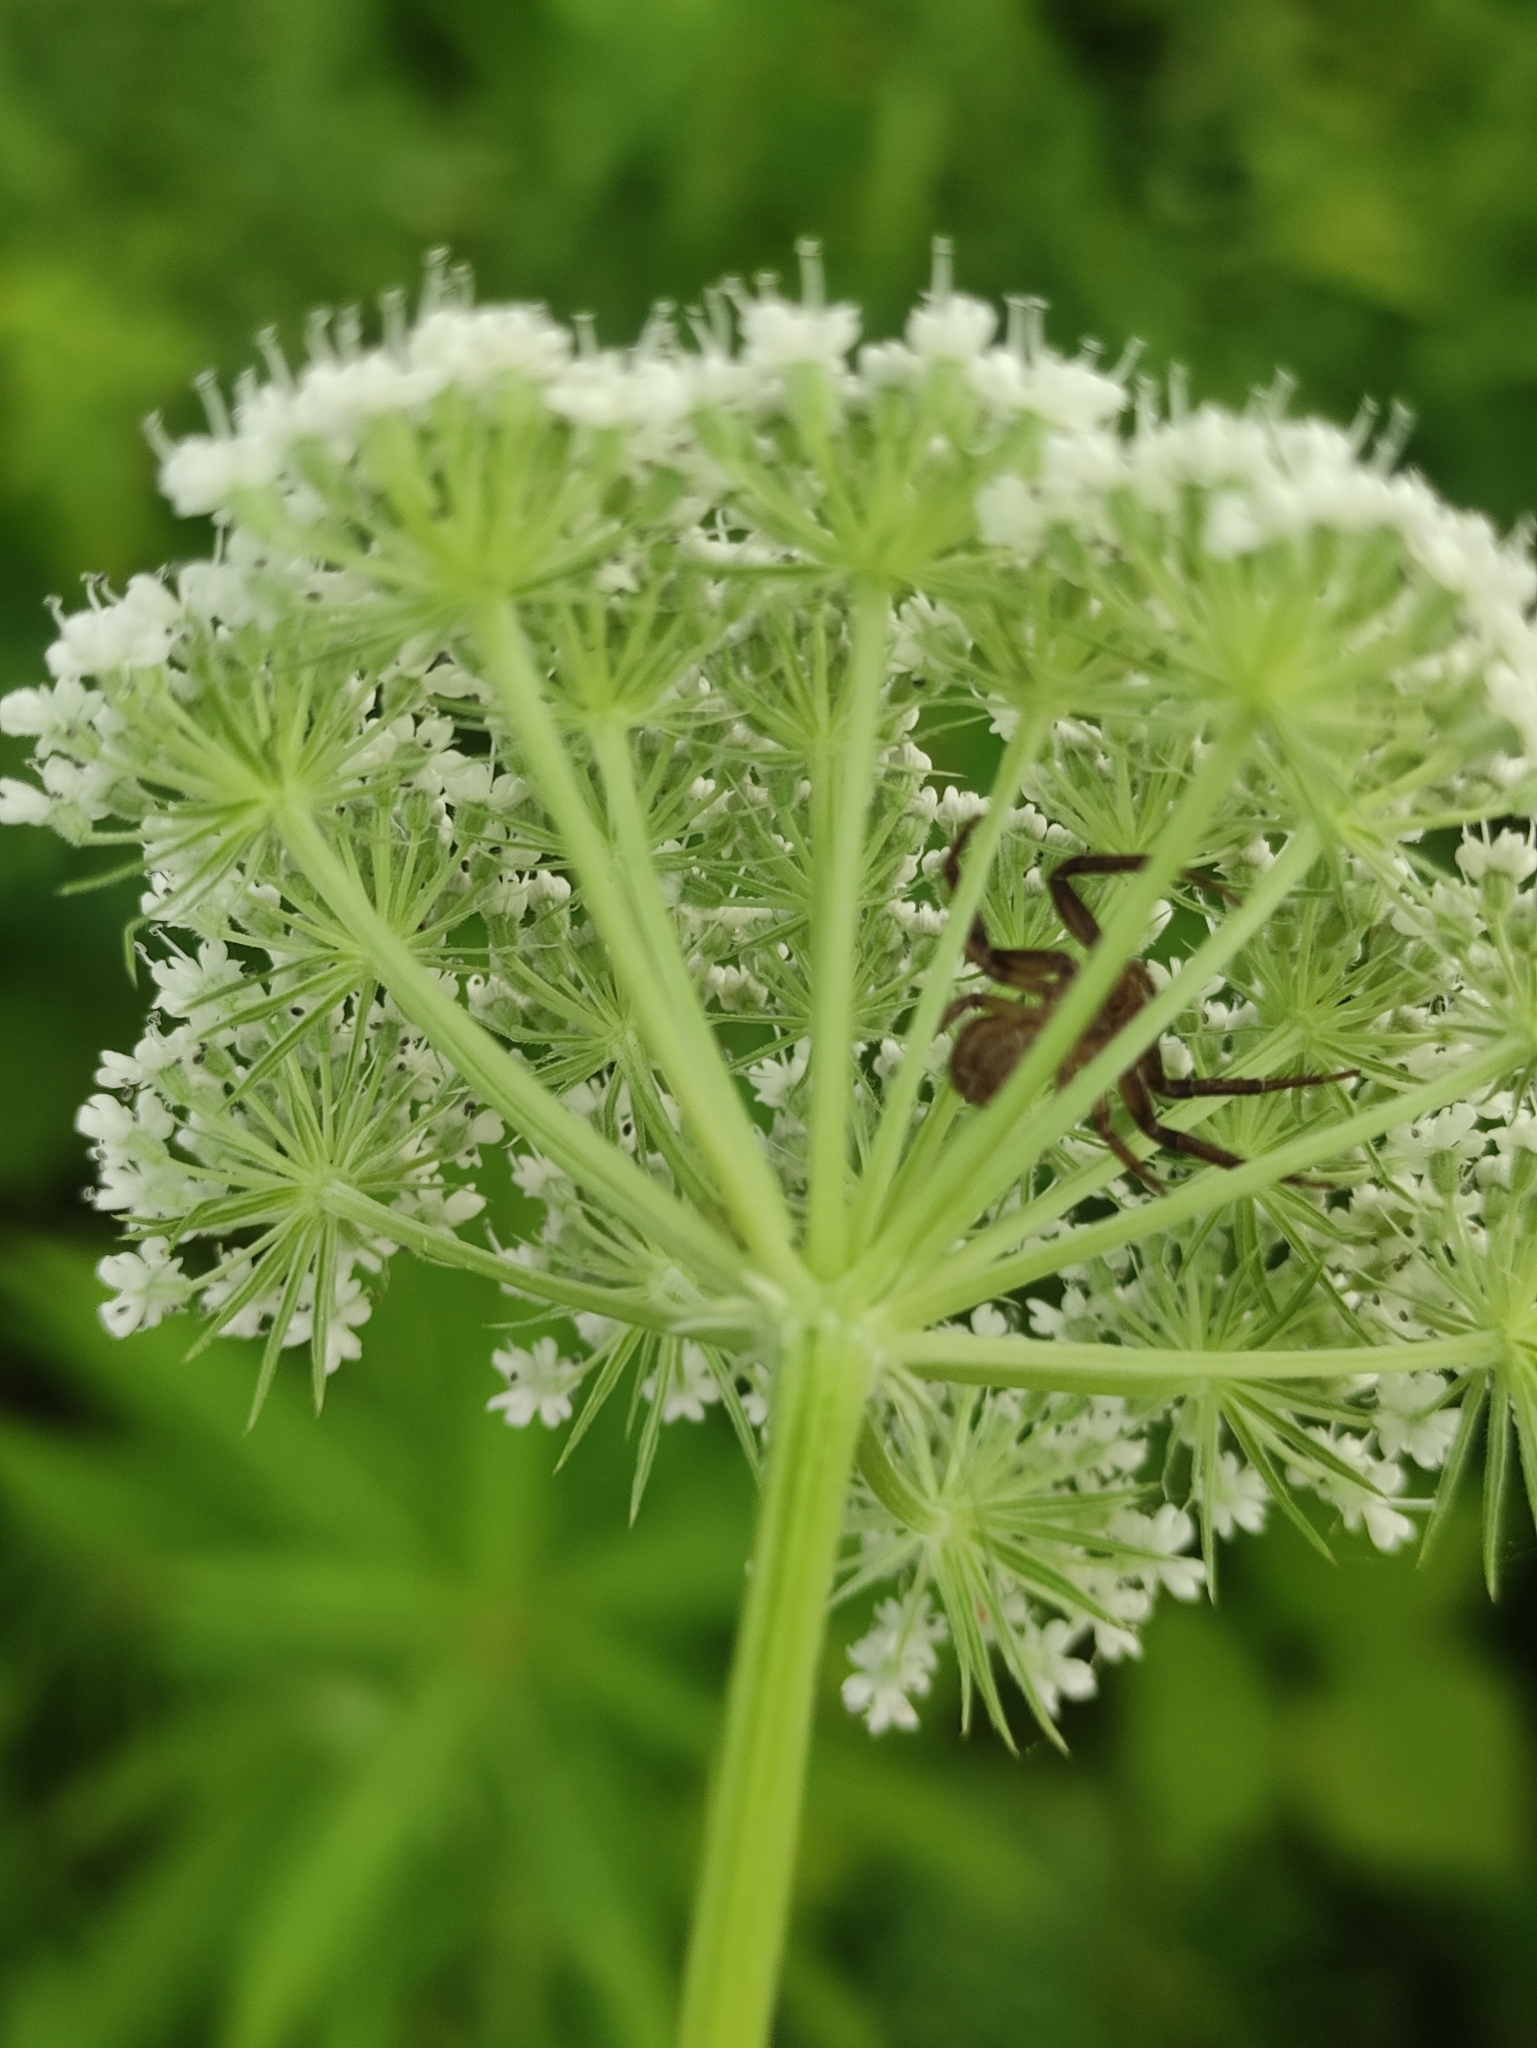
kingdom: Plantae
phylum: Tracheophyta
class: Magnoliopsida
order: Apiales
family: Apiaceae
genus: Seseli
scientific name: Seseli condensatum
